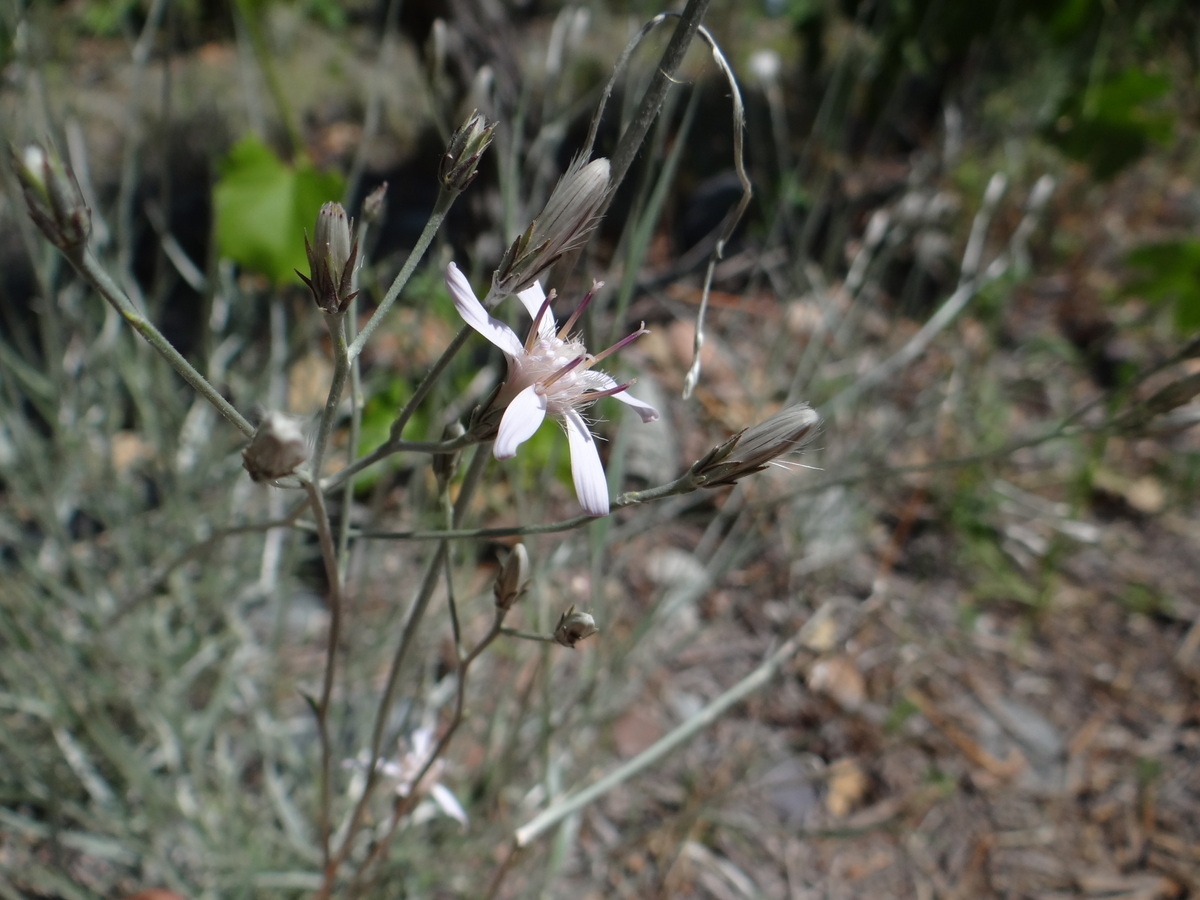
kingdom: Plantae
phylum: Tracheophyta
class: Magnoliopsida
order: Asterales
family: Asteraceae
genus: Hyalis
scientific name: Hyalis argentea
